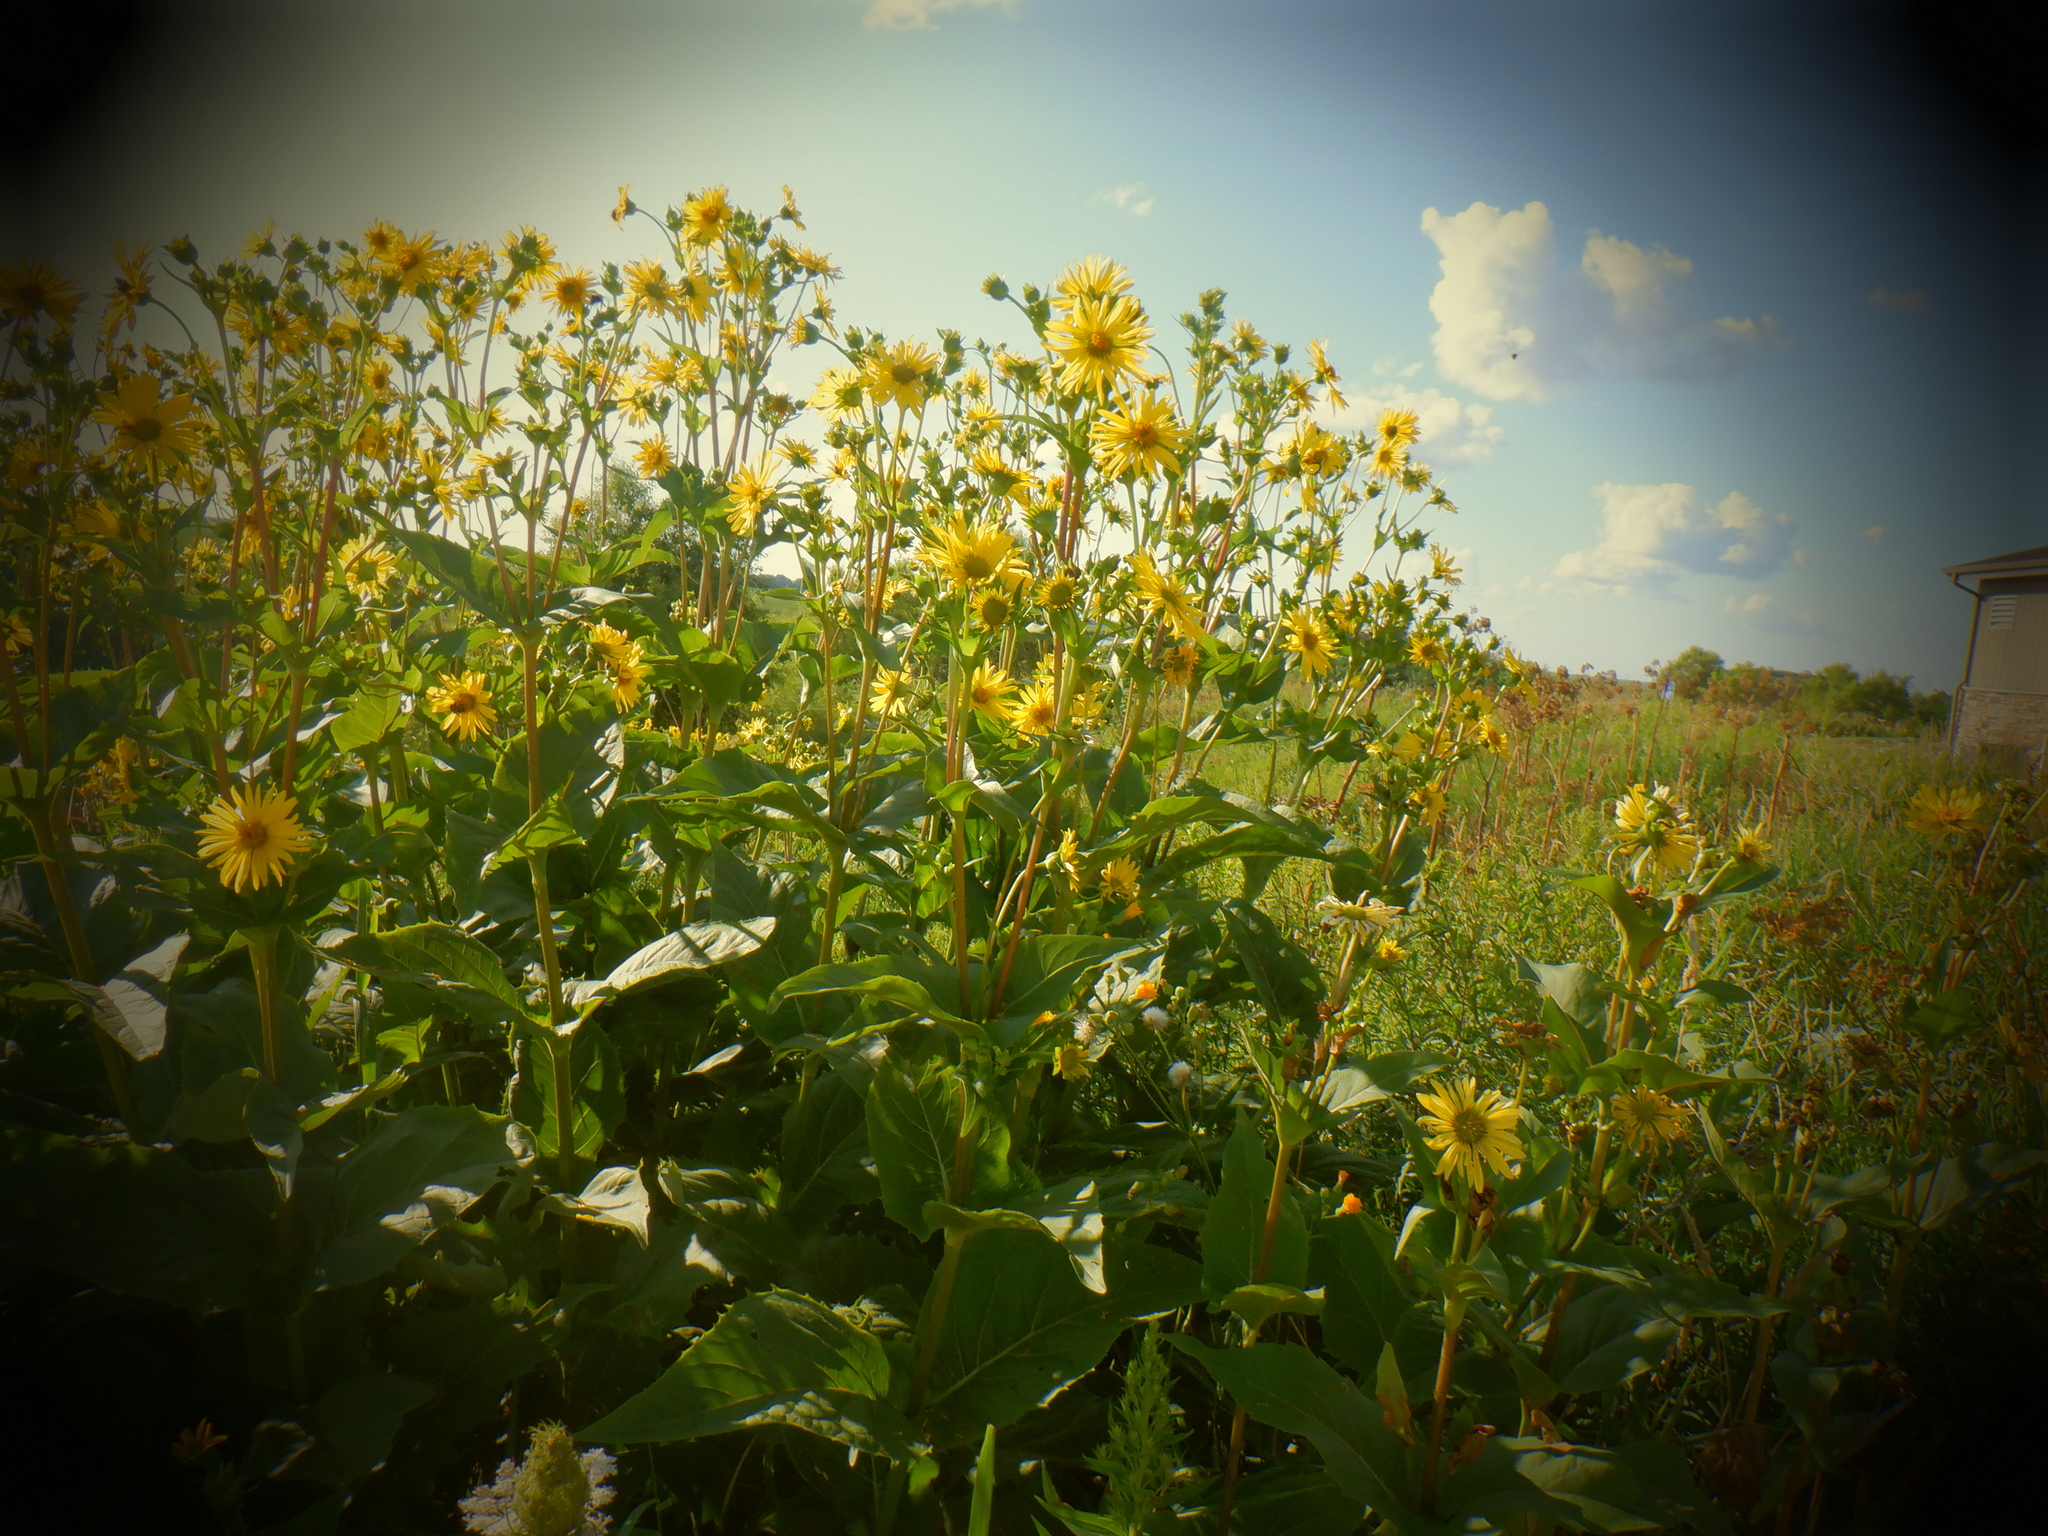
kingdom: Plantae
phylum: Tracheophyta
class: Magnoliopsida
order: Asterales
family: Asteraceae
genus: Silphium
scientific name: Silphium perfoliatum
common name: Cup-plant
